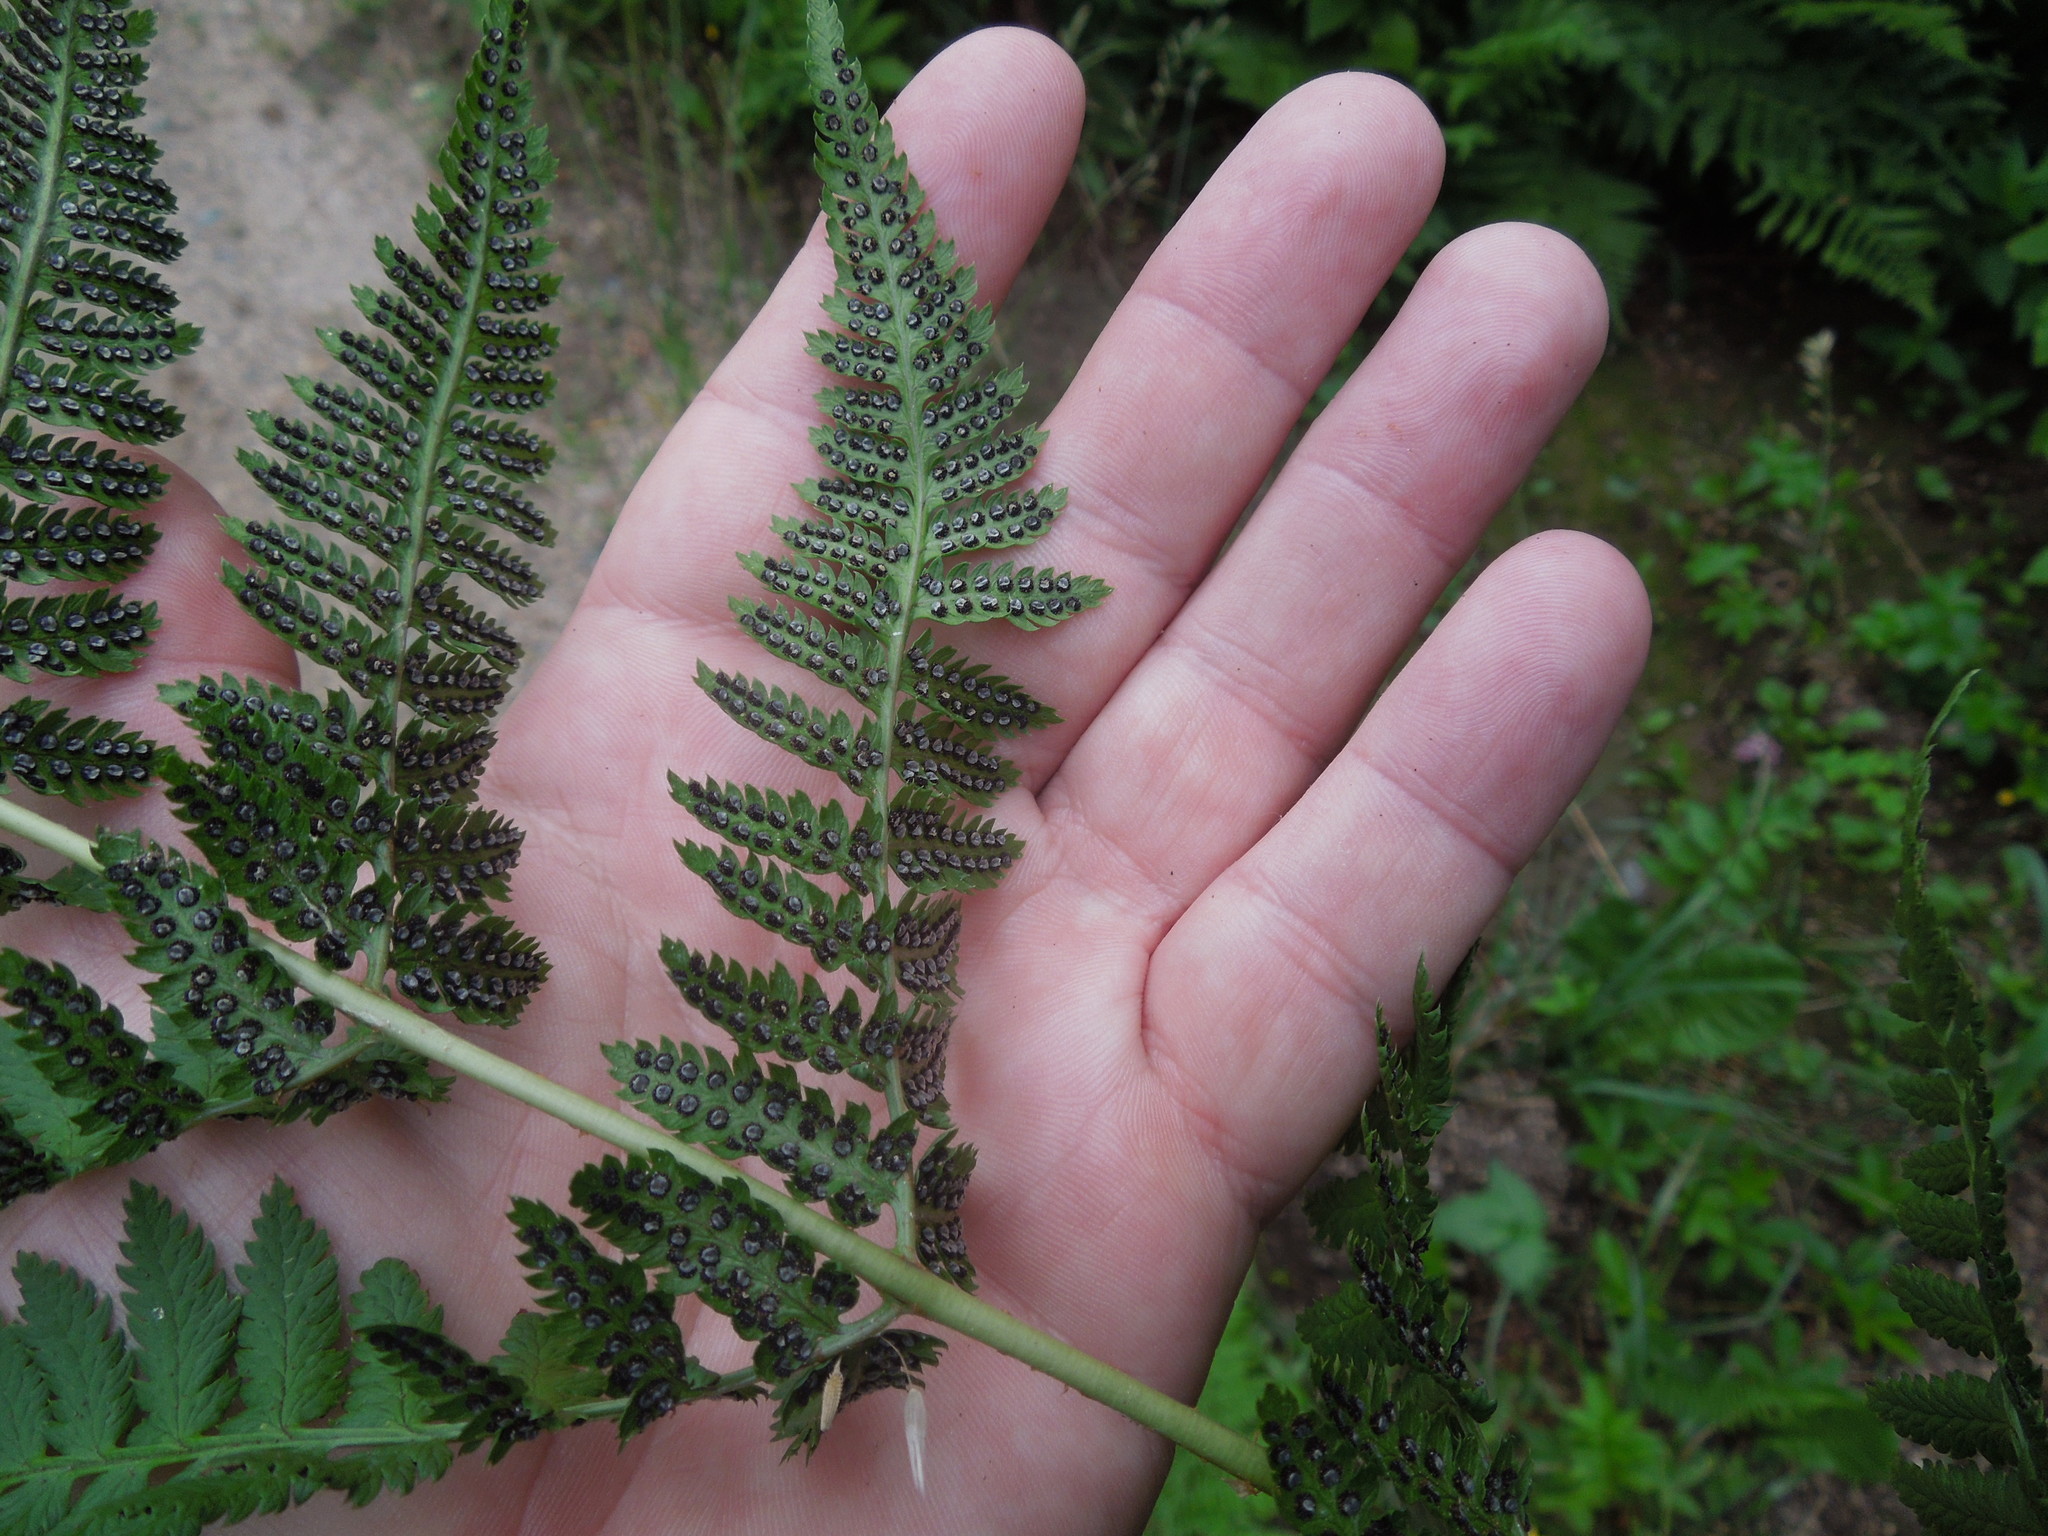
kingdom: Plantae
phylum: Tracheophyta
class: Polypodiopsida
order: Polypodiales
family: Dryopteridaceae
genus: Dryopteris
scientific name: Dryopteris intermedia
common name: Evergreen wood fern
